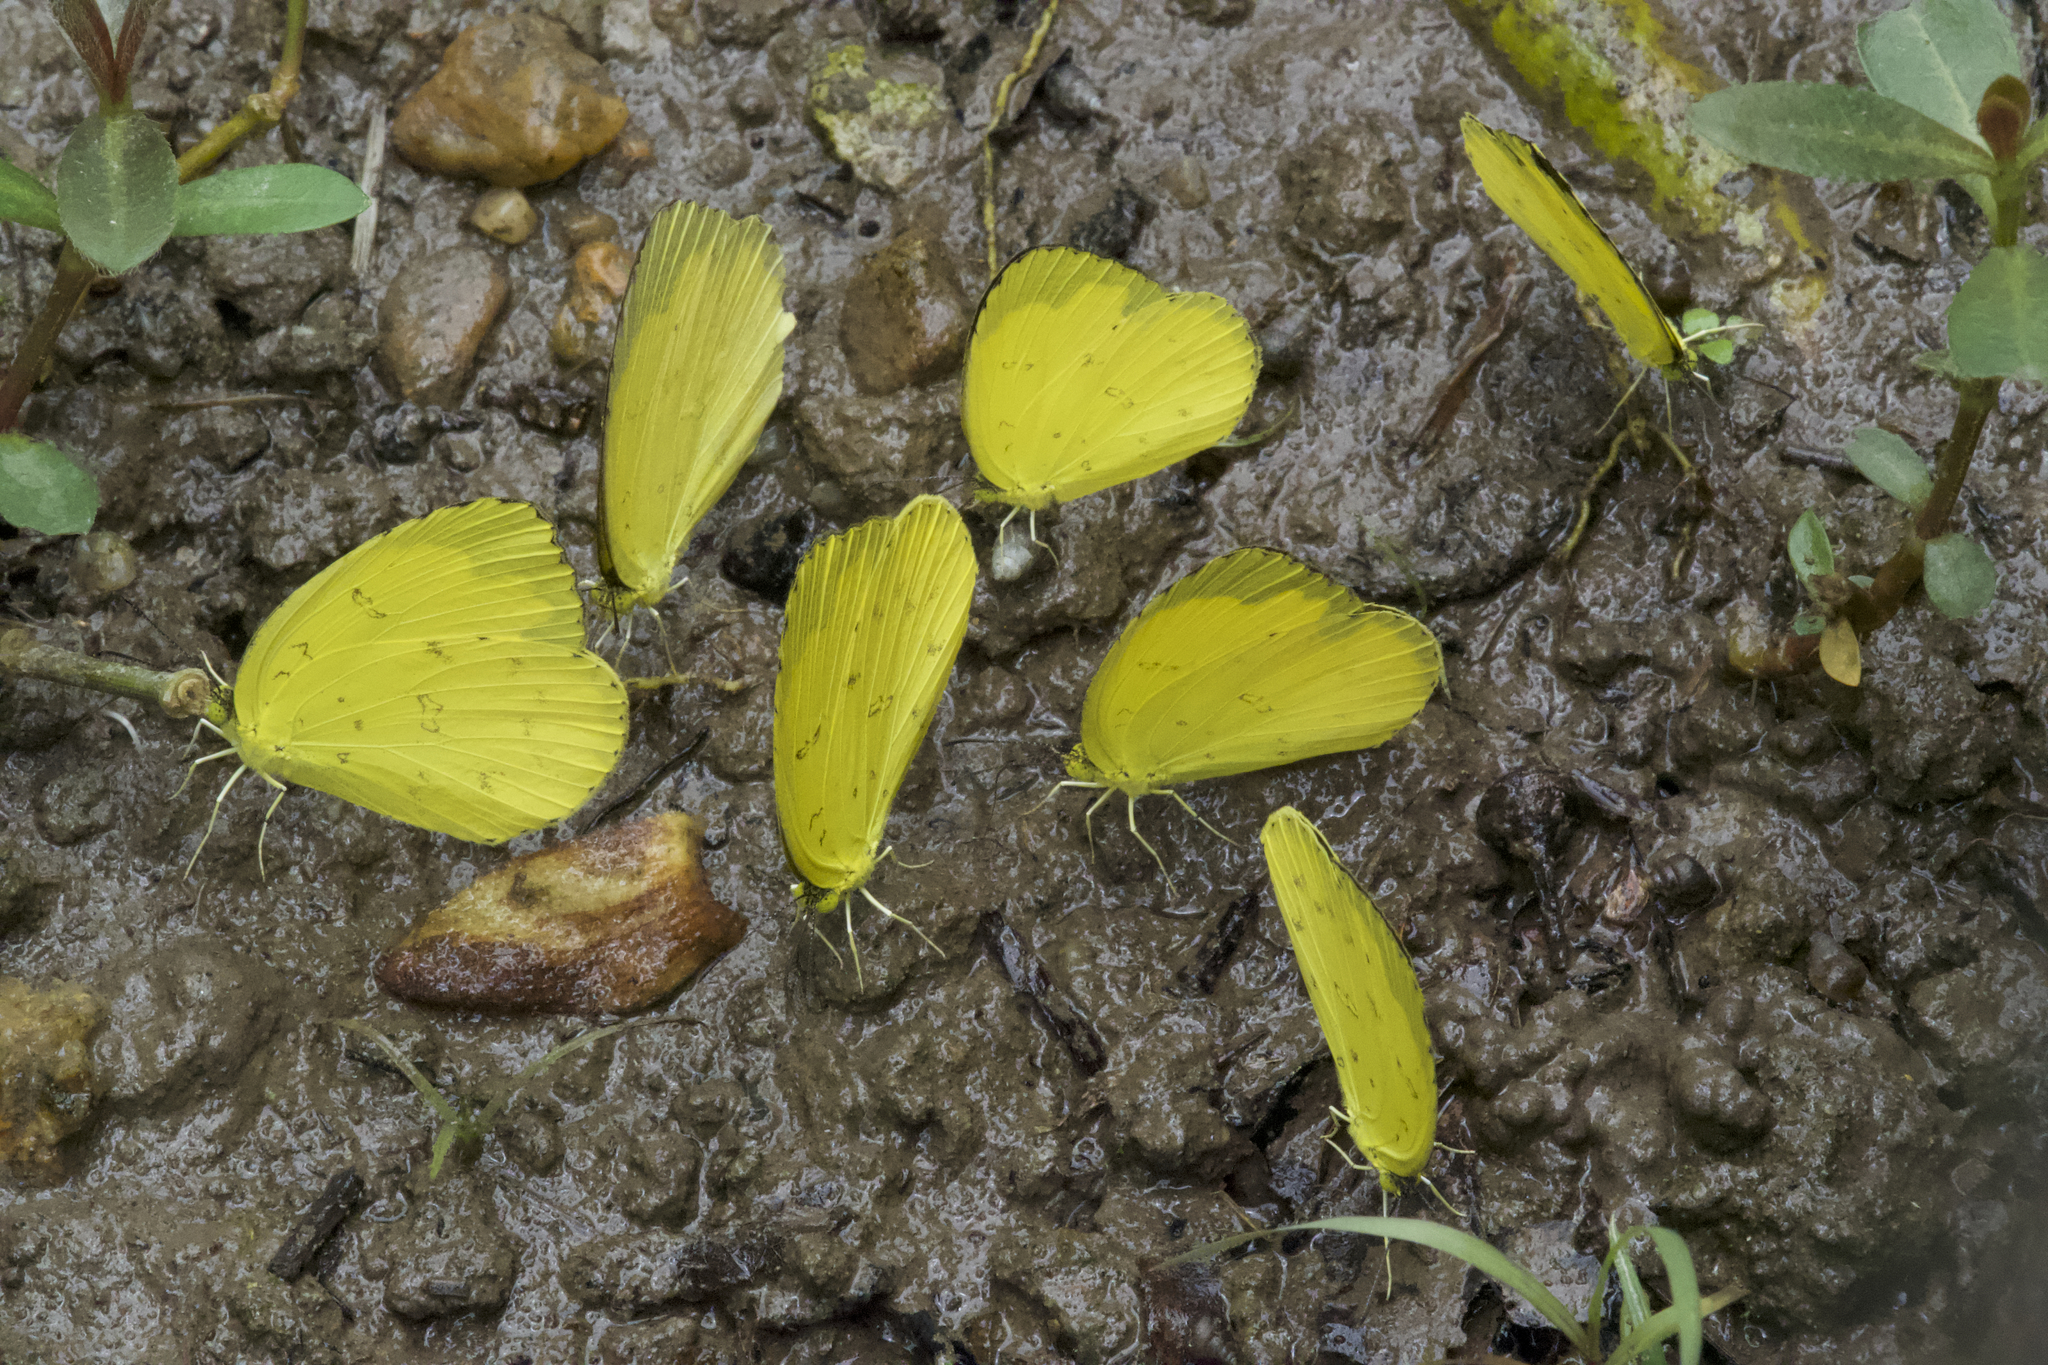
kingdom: Animalia
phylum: Arthropoda
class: Insecta
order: Lepidoptera
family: Pieridae
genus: Eurema
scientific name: Eurema blanda
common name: Three-spot grass yellow
